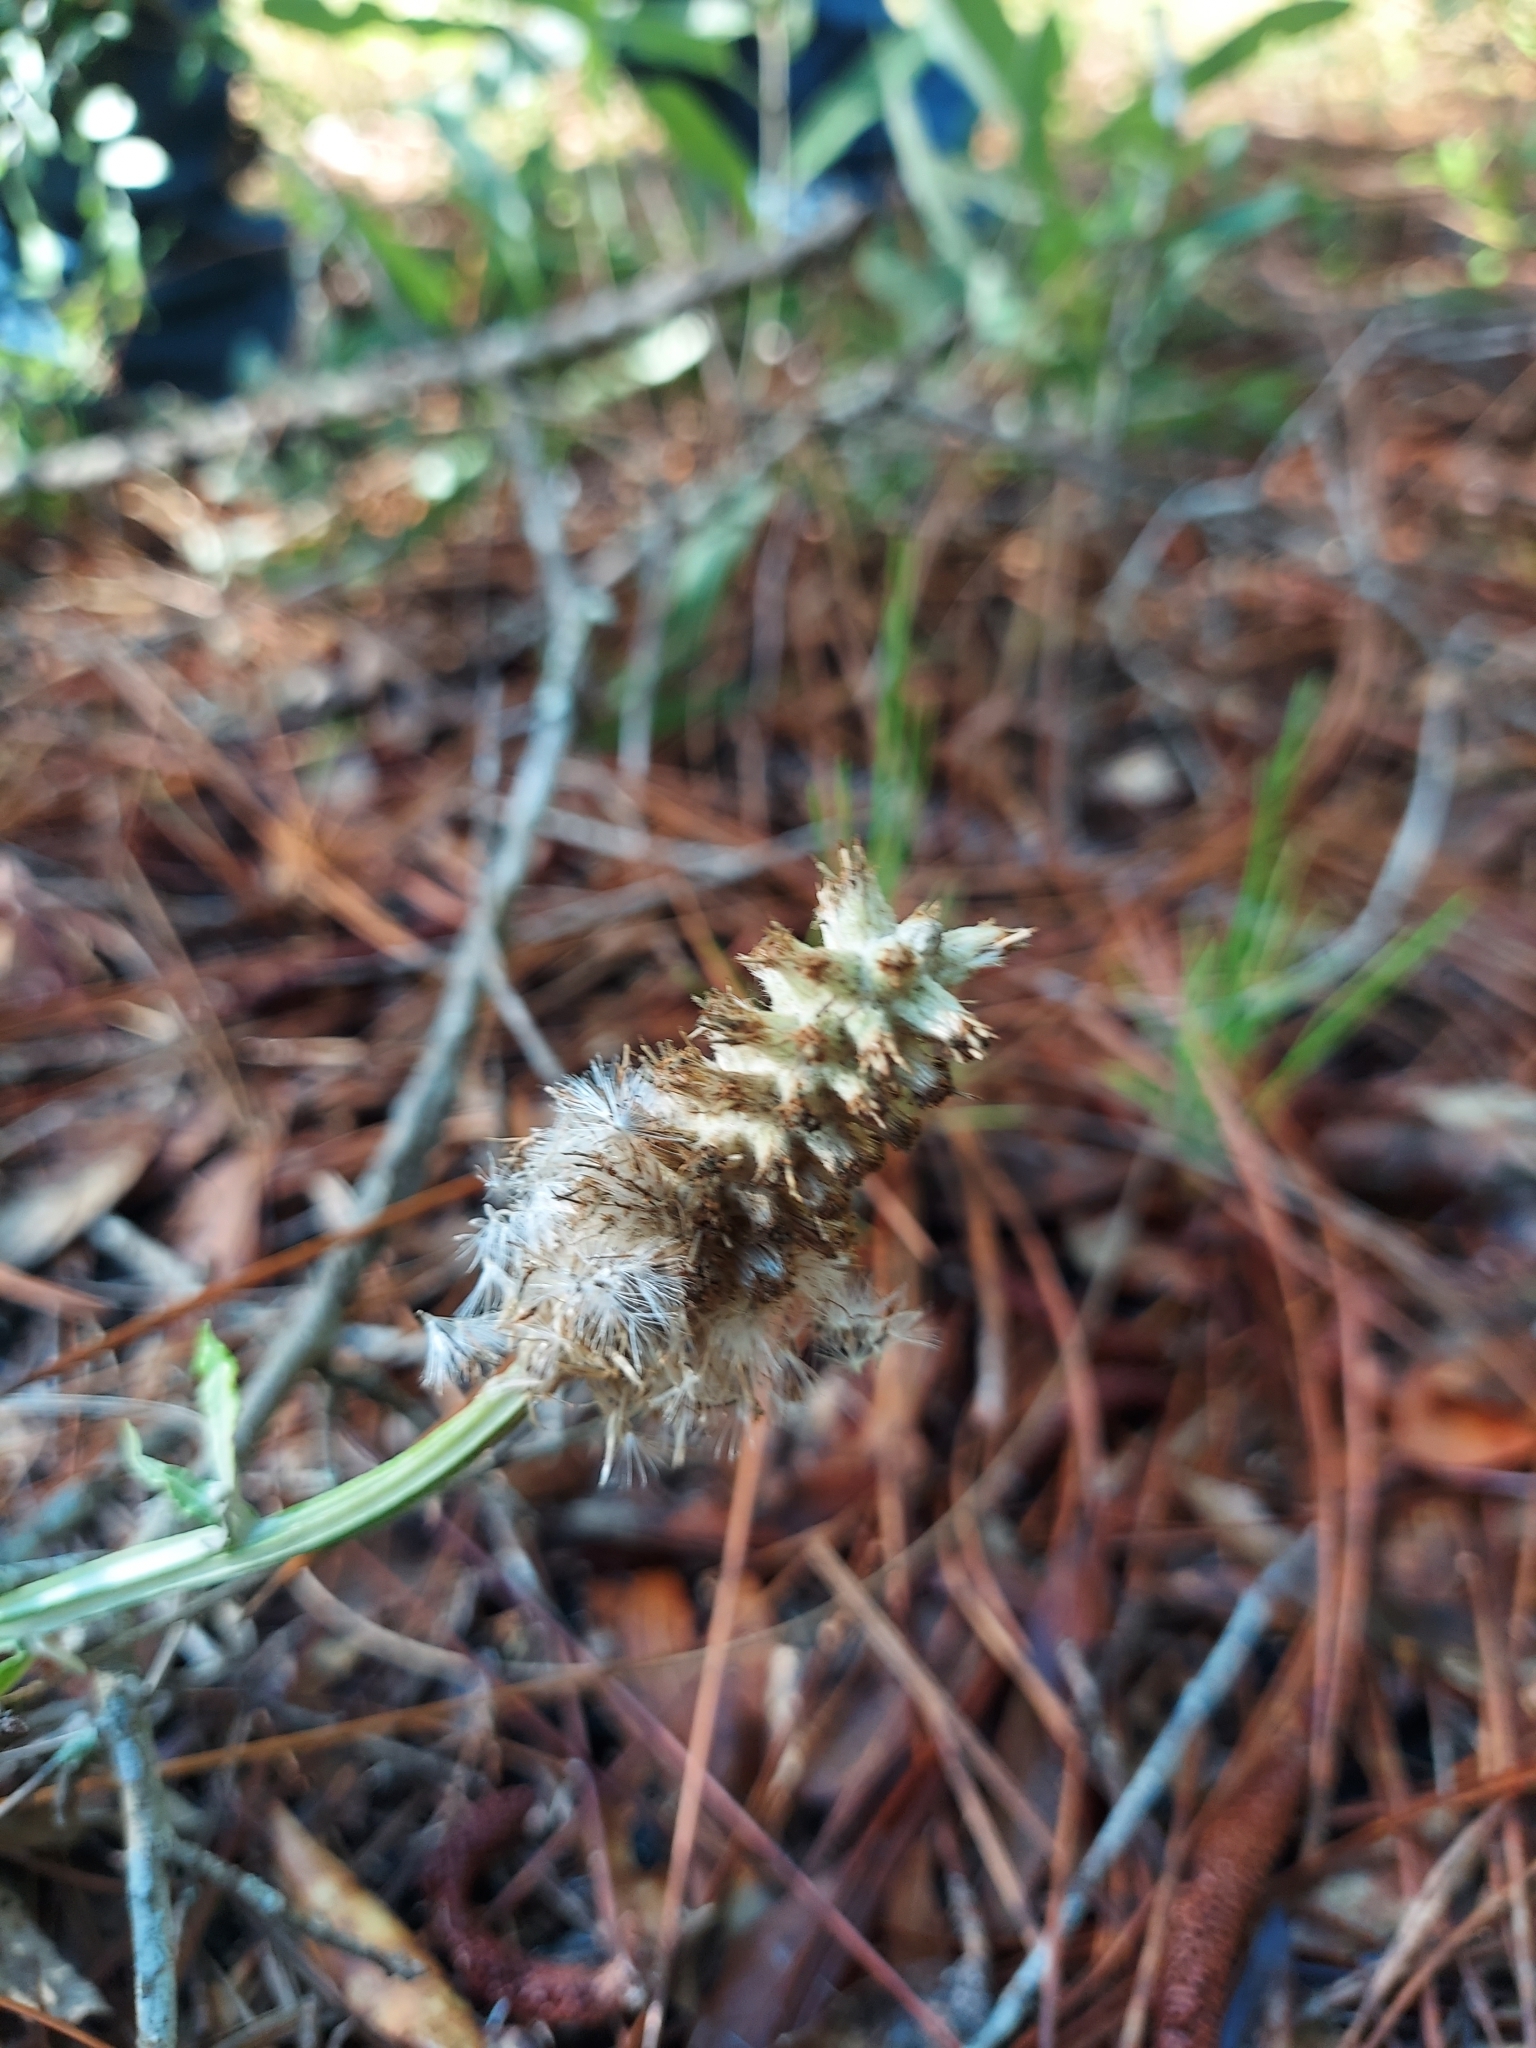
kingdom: Plantae
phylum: Tracheophyta
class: Magnoliopsida
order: Asterales
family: Asteraceae
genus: Pterocaulon
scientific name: Pterocaulon pycnostachyum
